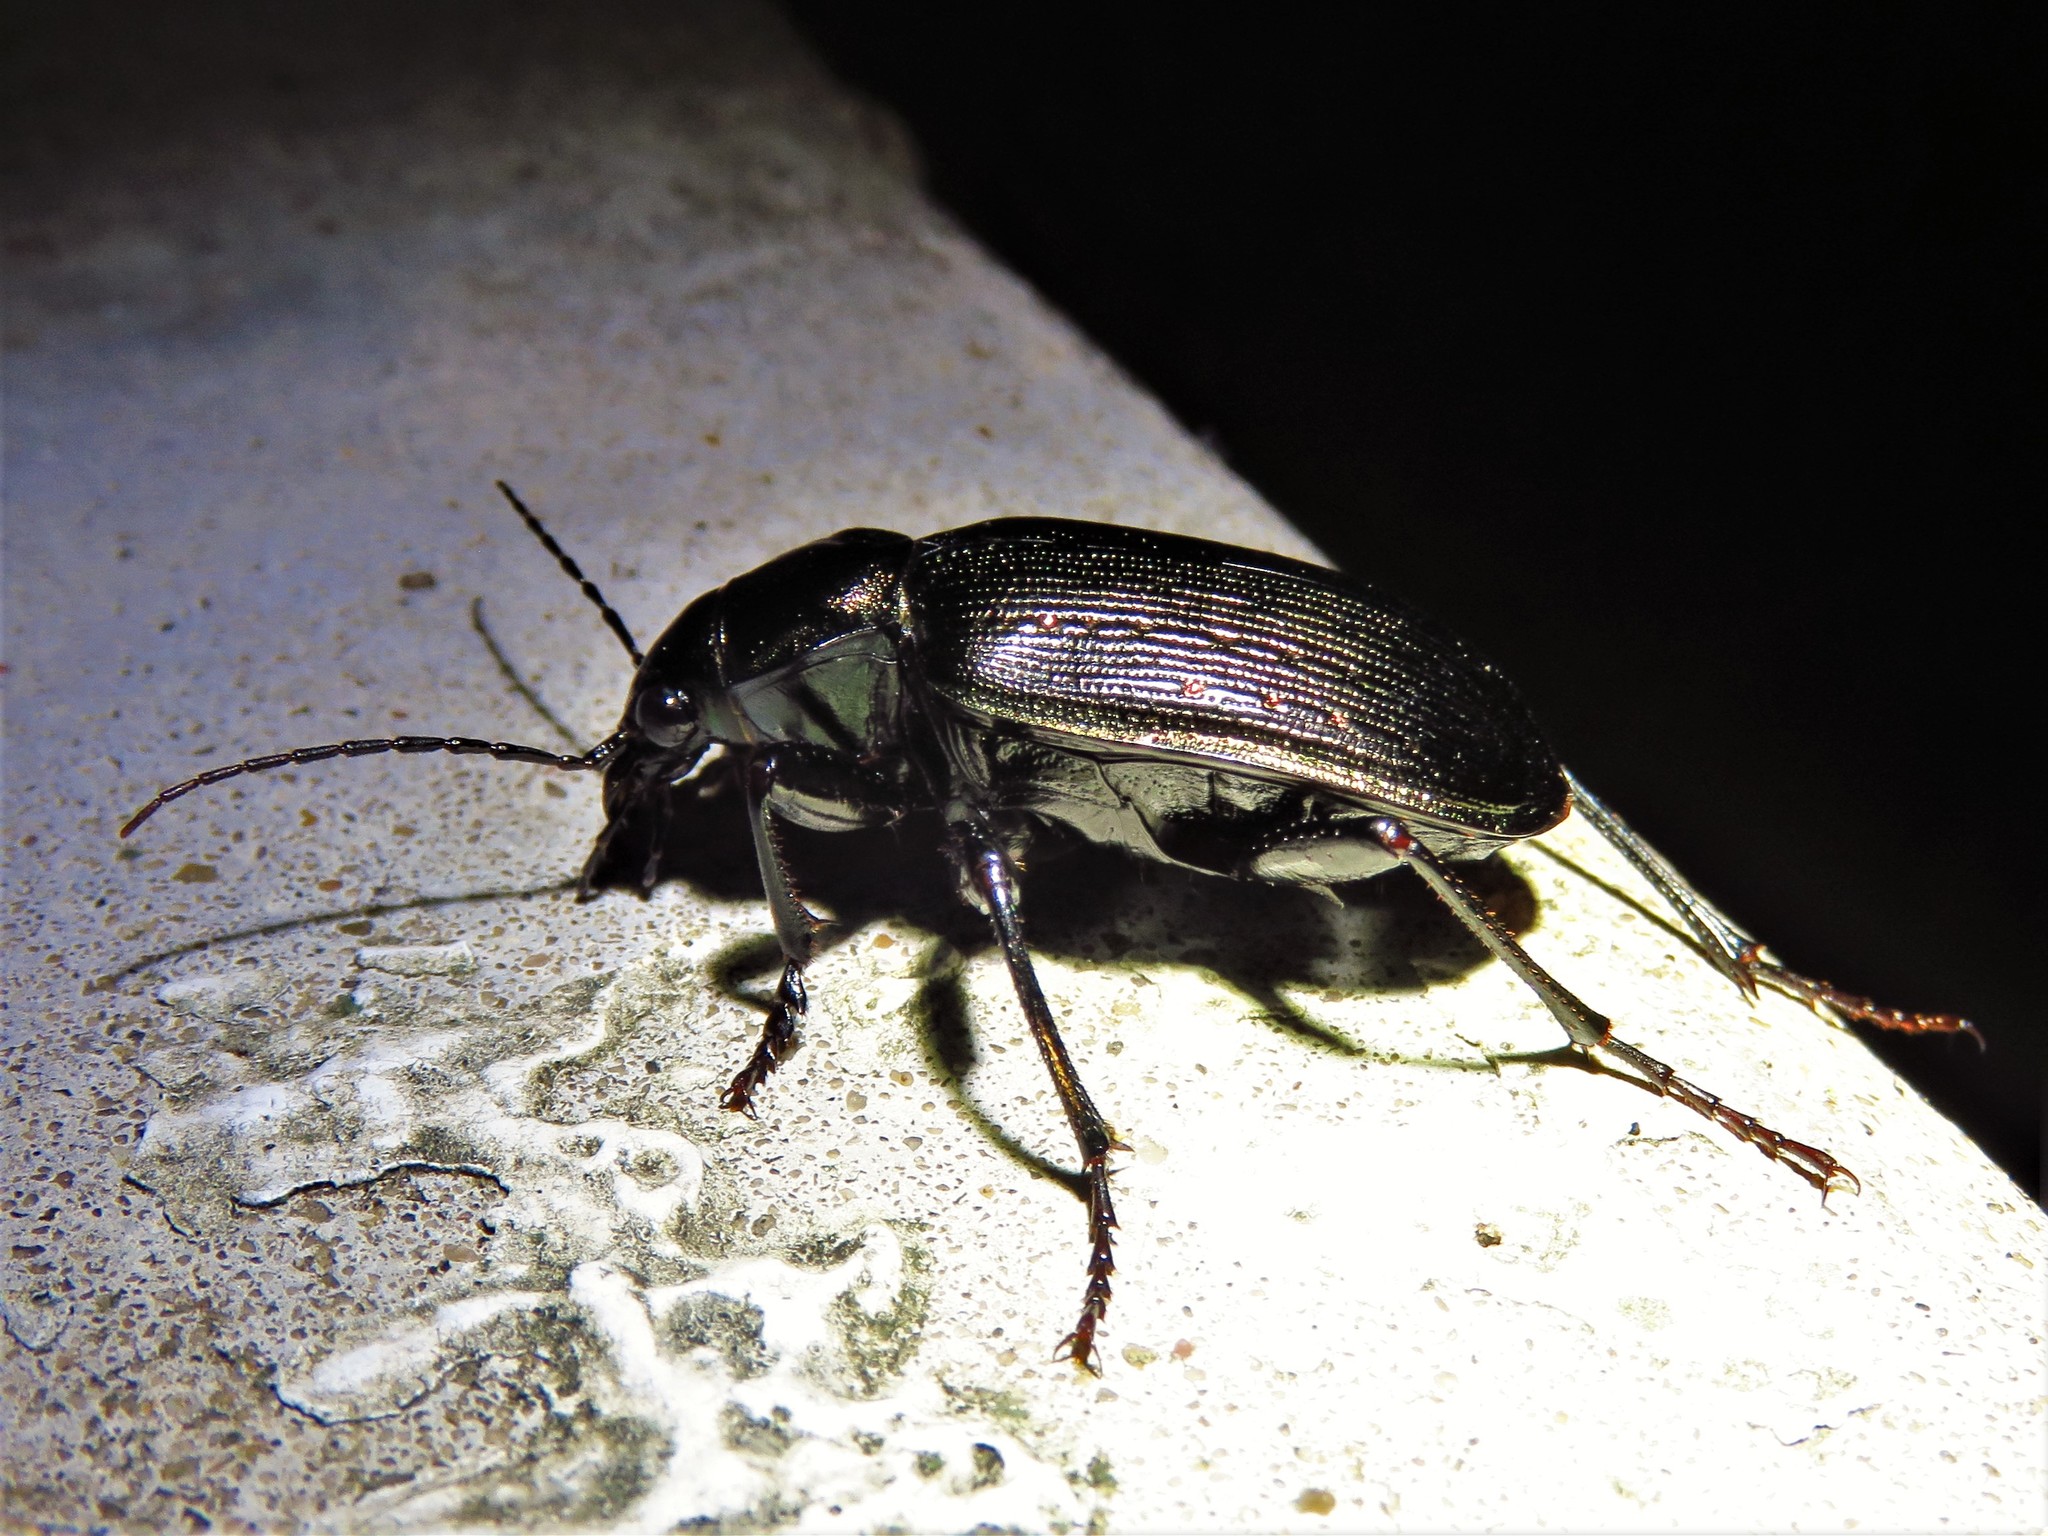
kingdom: Animalia
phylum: Arthropoda
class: Insecta
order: Coleoptera
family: Carabidae
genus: Calosoma
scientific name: Calosoma sayi
